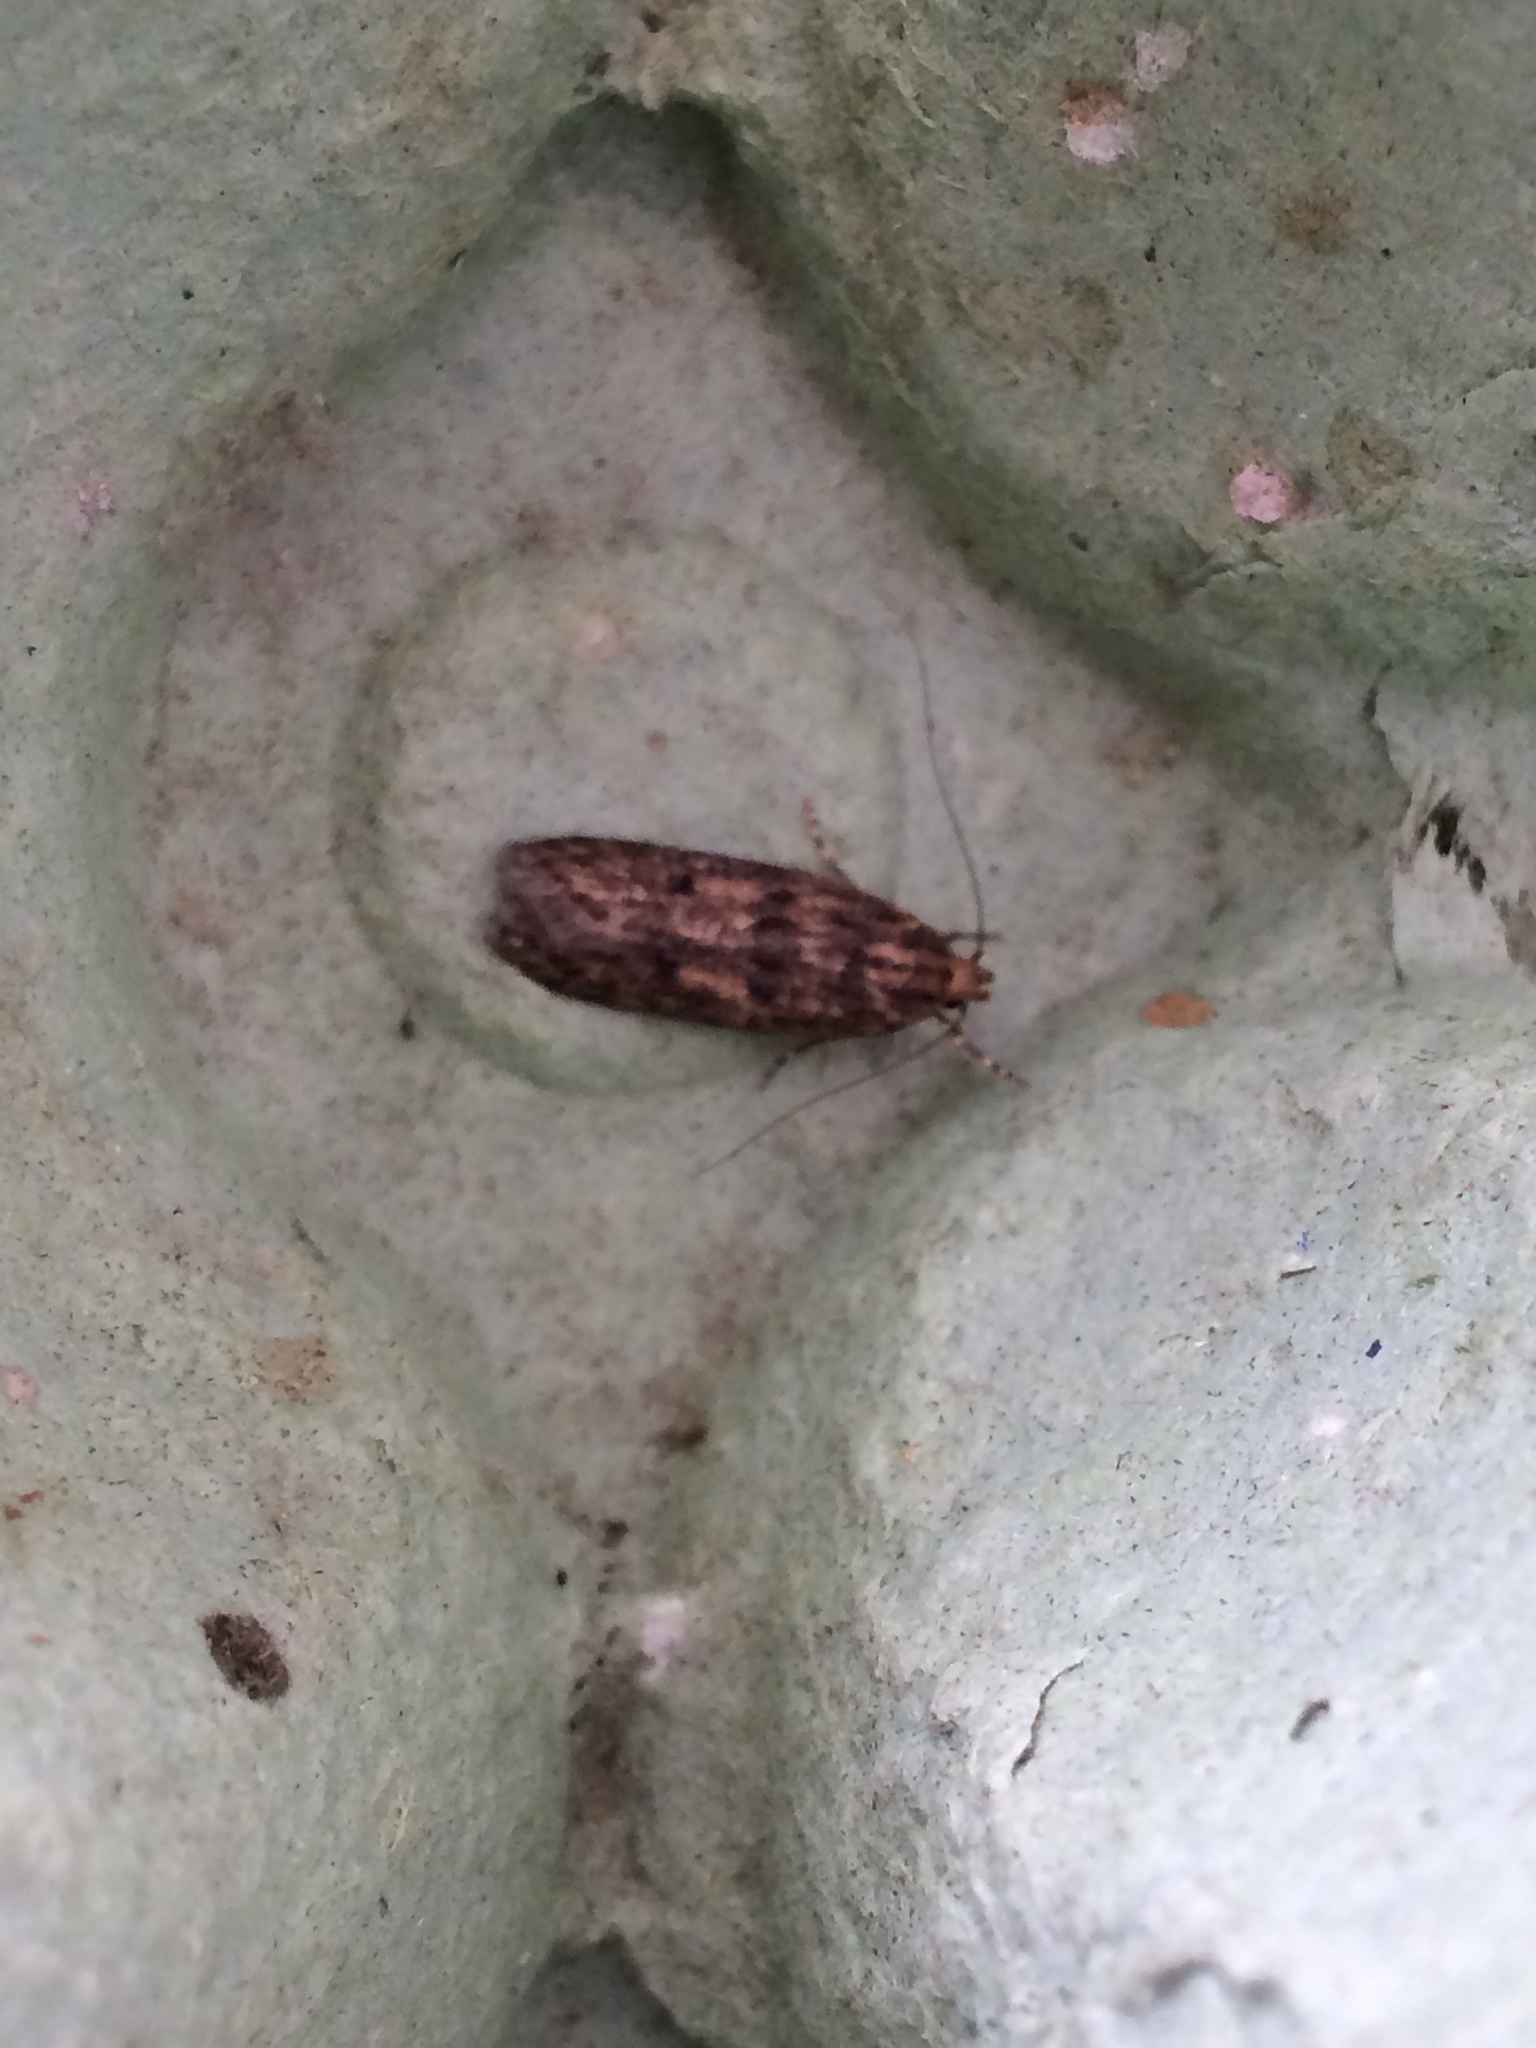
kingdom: Animalia
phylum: Arthropoda
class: Insecta
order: Lepidoptera
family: Oecophoridae
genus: Hofmannophila
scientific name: Hofmannophila pseudospretella
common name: Brown house moth
